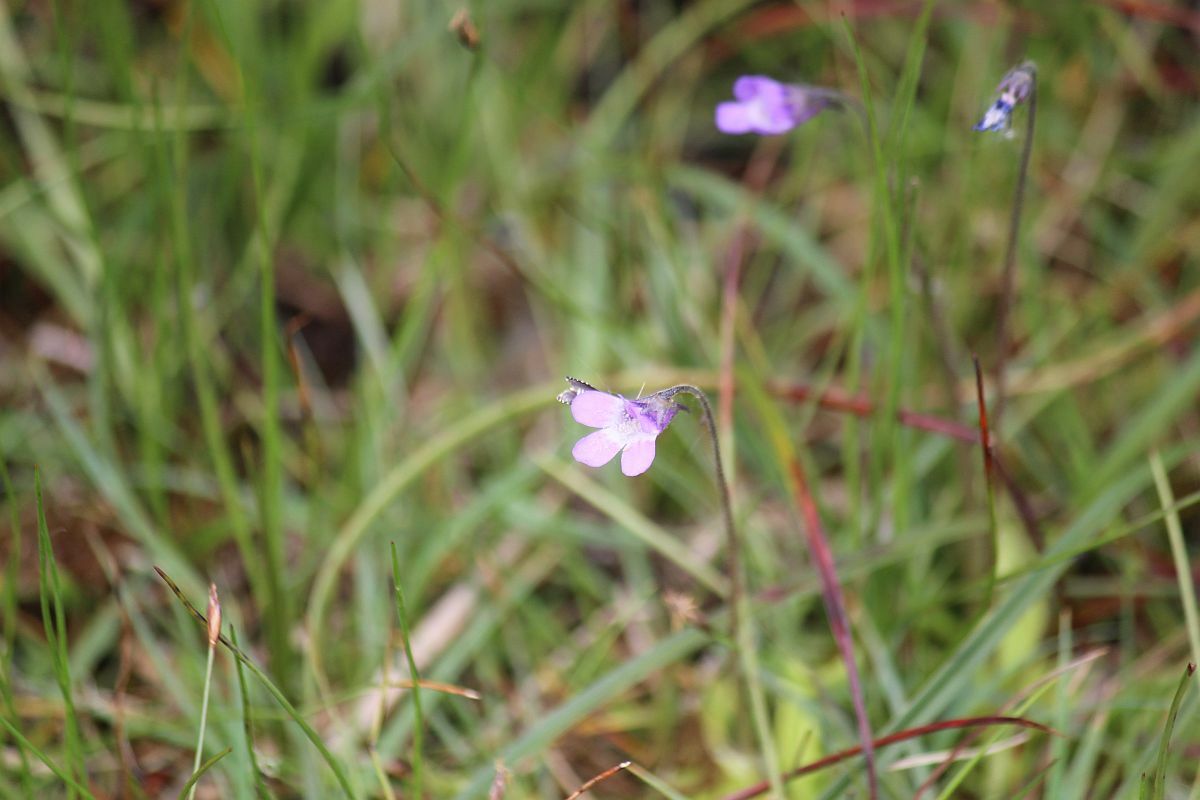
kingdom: Plantae
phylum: Tracheophyta
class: Magnoliopsida
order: Lamiales
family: Lentibulariaceae
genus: Pinguicula
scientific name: Pinguicula vulgaris
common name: Common butterwort
